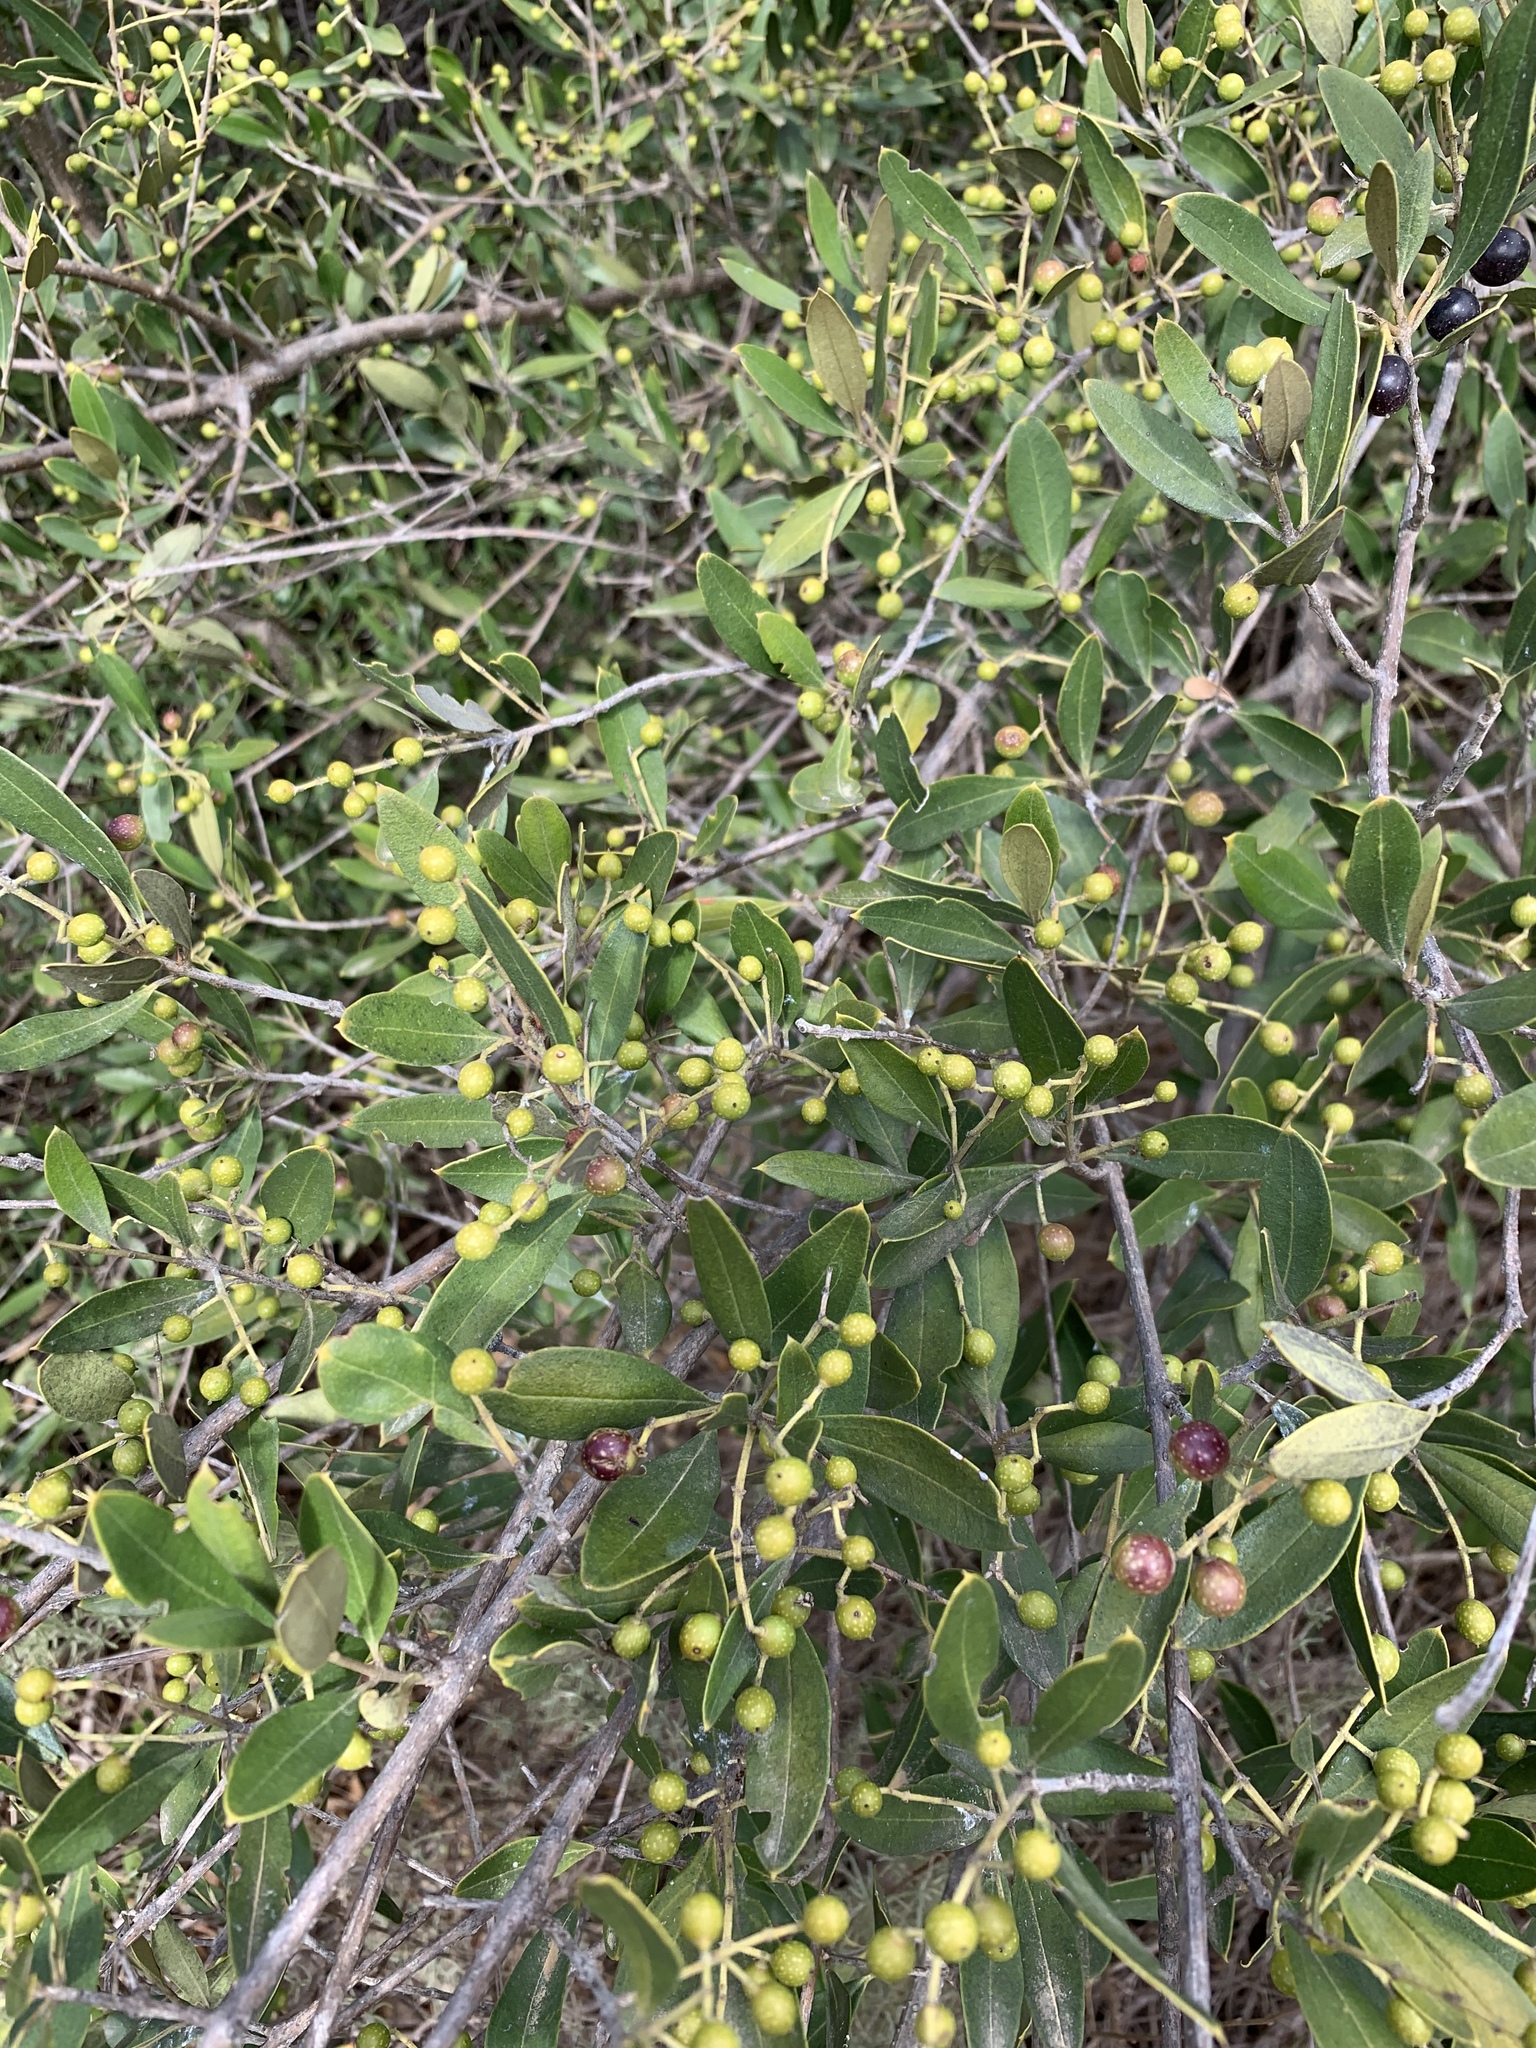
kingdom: Plantae
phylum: Tracheophyta
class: Magnoliopsida
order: Lamiales
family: Oleaceae
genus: Olea
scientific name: Olea europaea
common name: Olive
